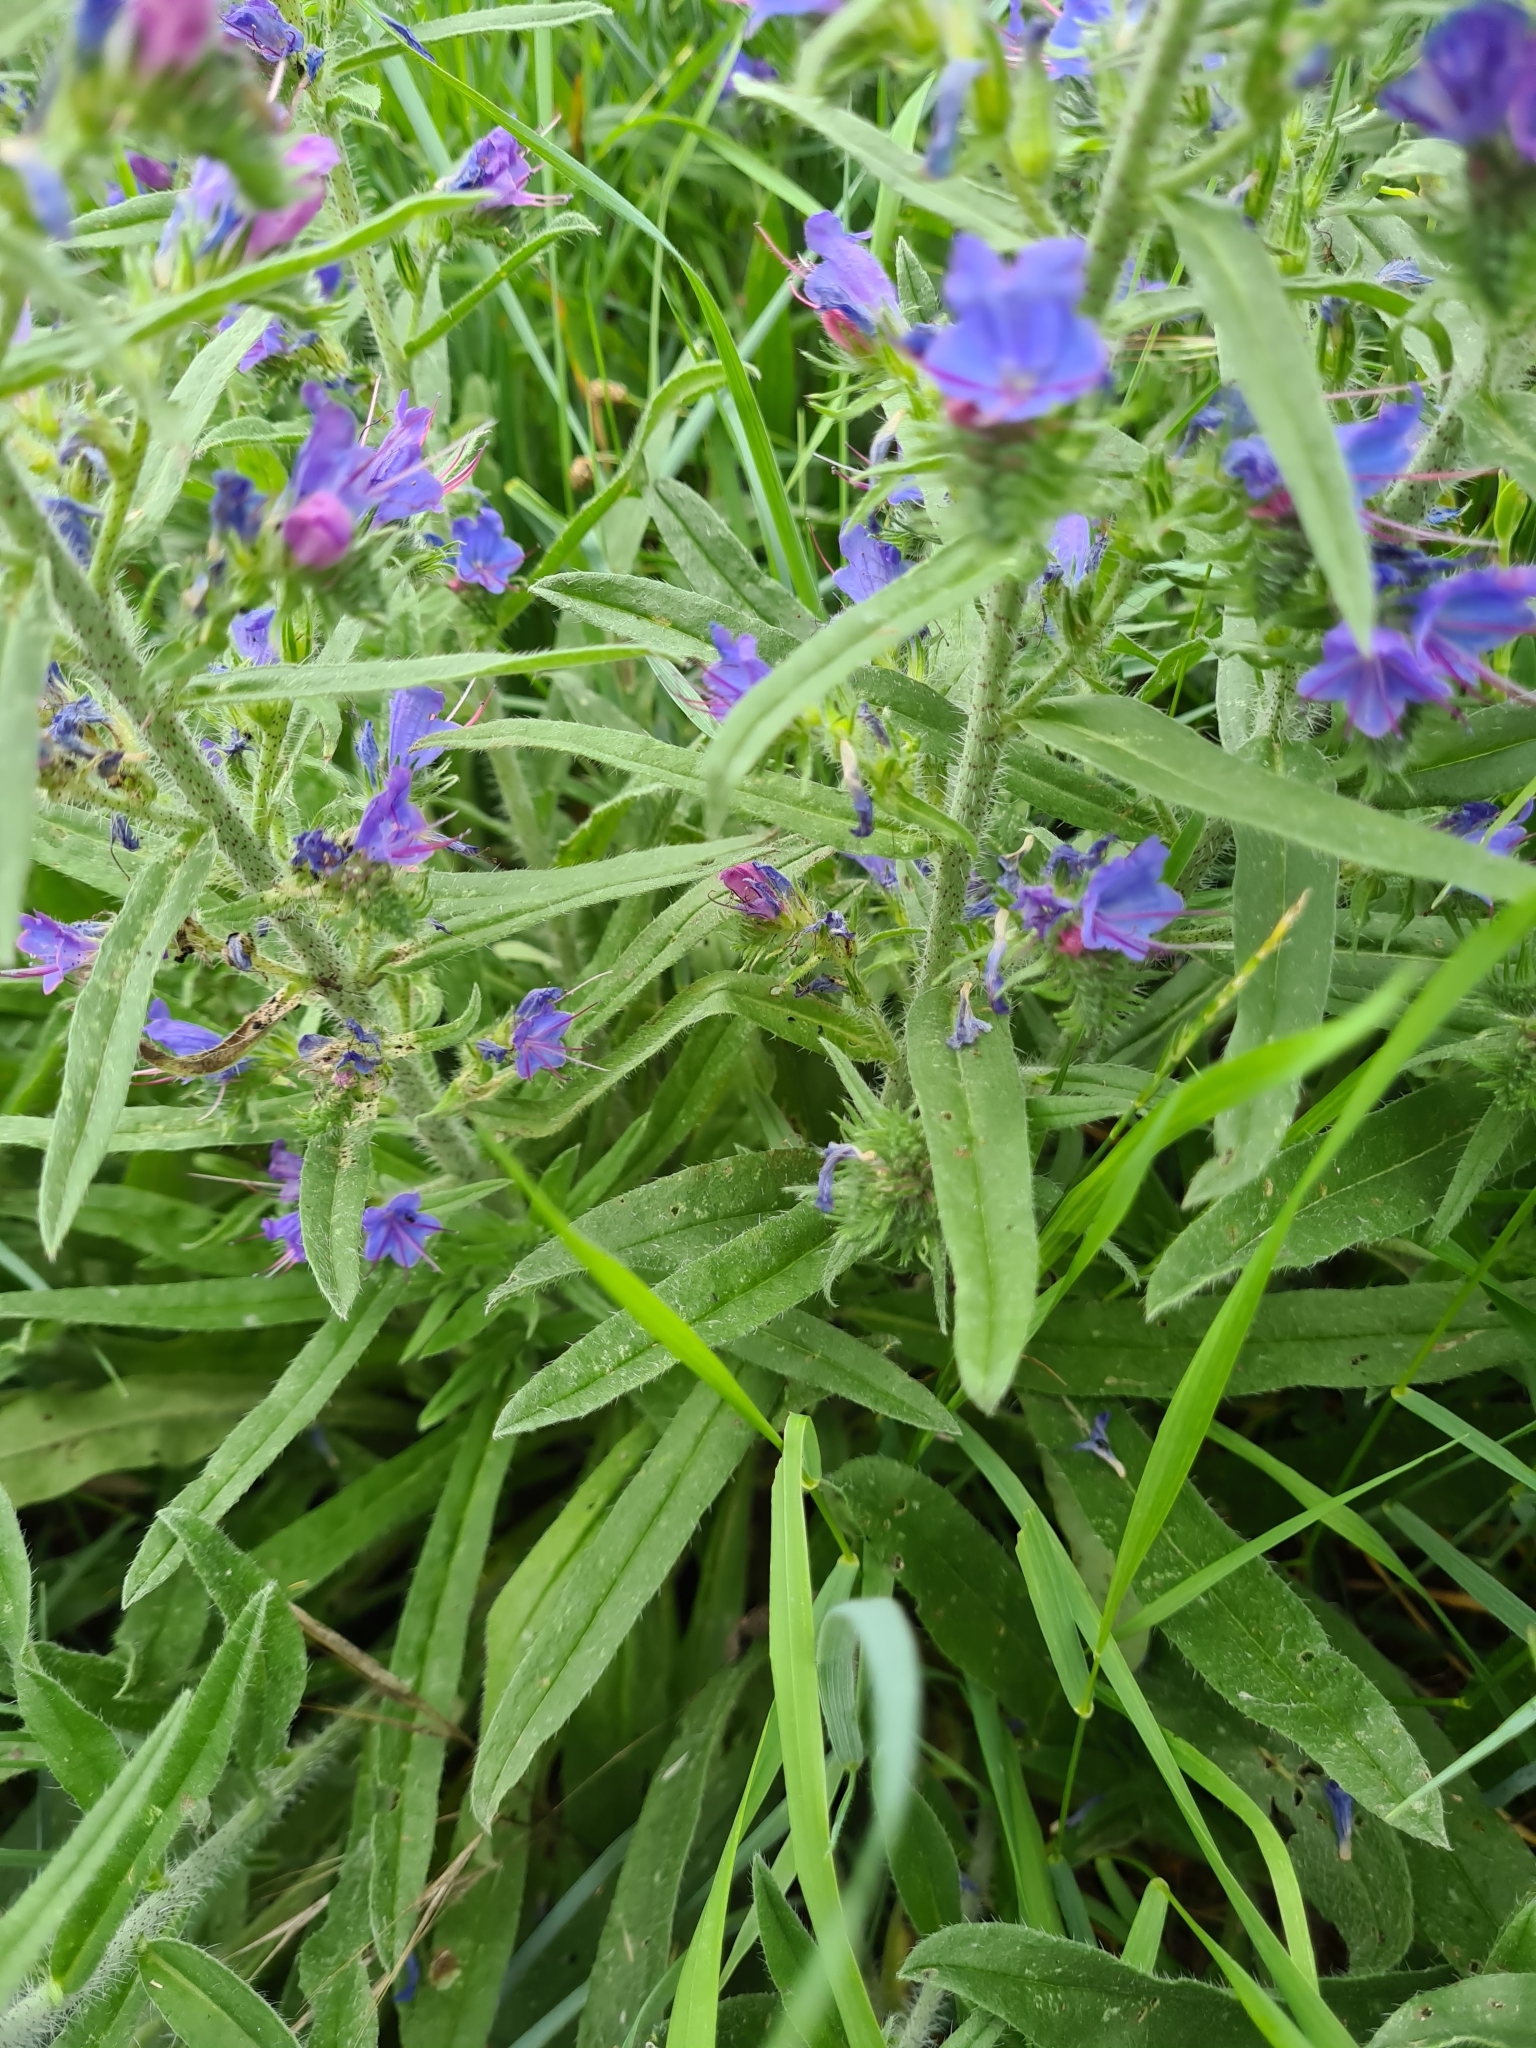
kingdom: Plantae
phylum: Tracheophyta
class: Magnoliopsida
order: Boraginales
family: Boraginaceae
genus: Echium
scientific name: Echium vulgare
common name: Common viper's bugloss
